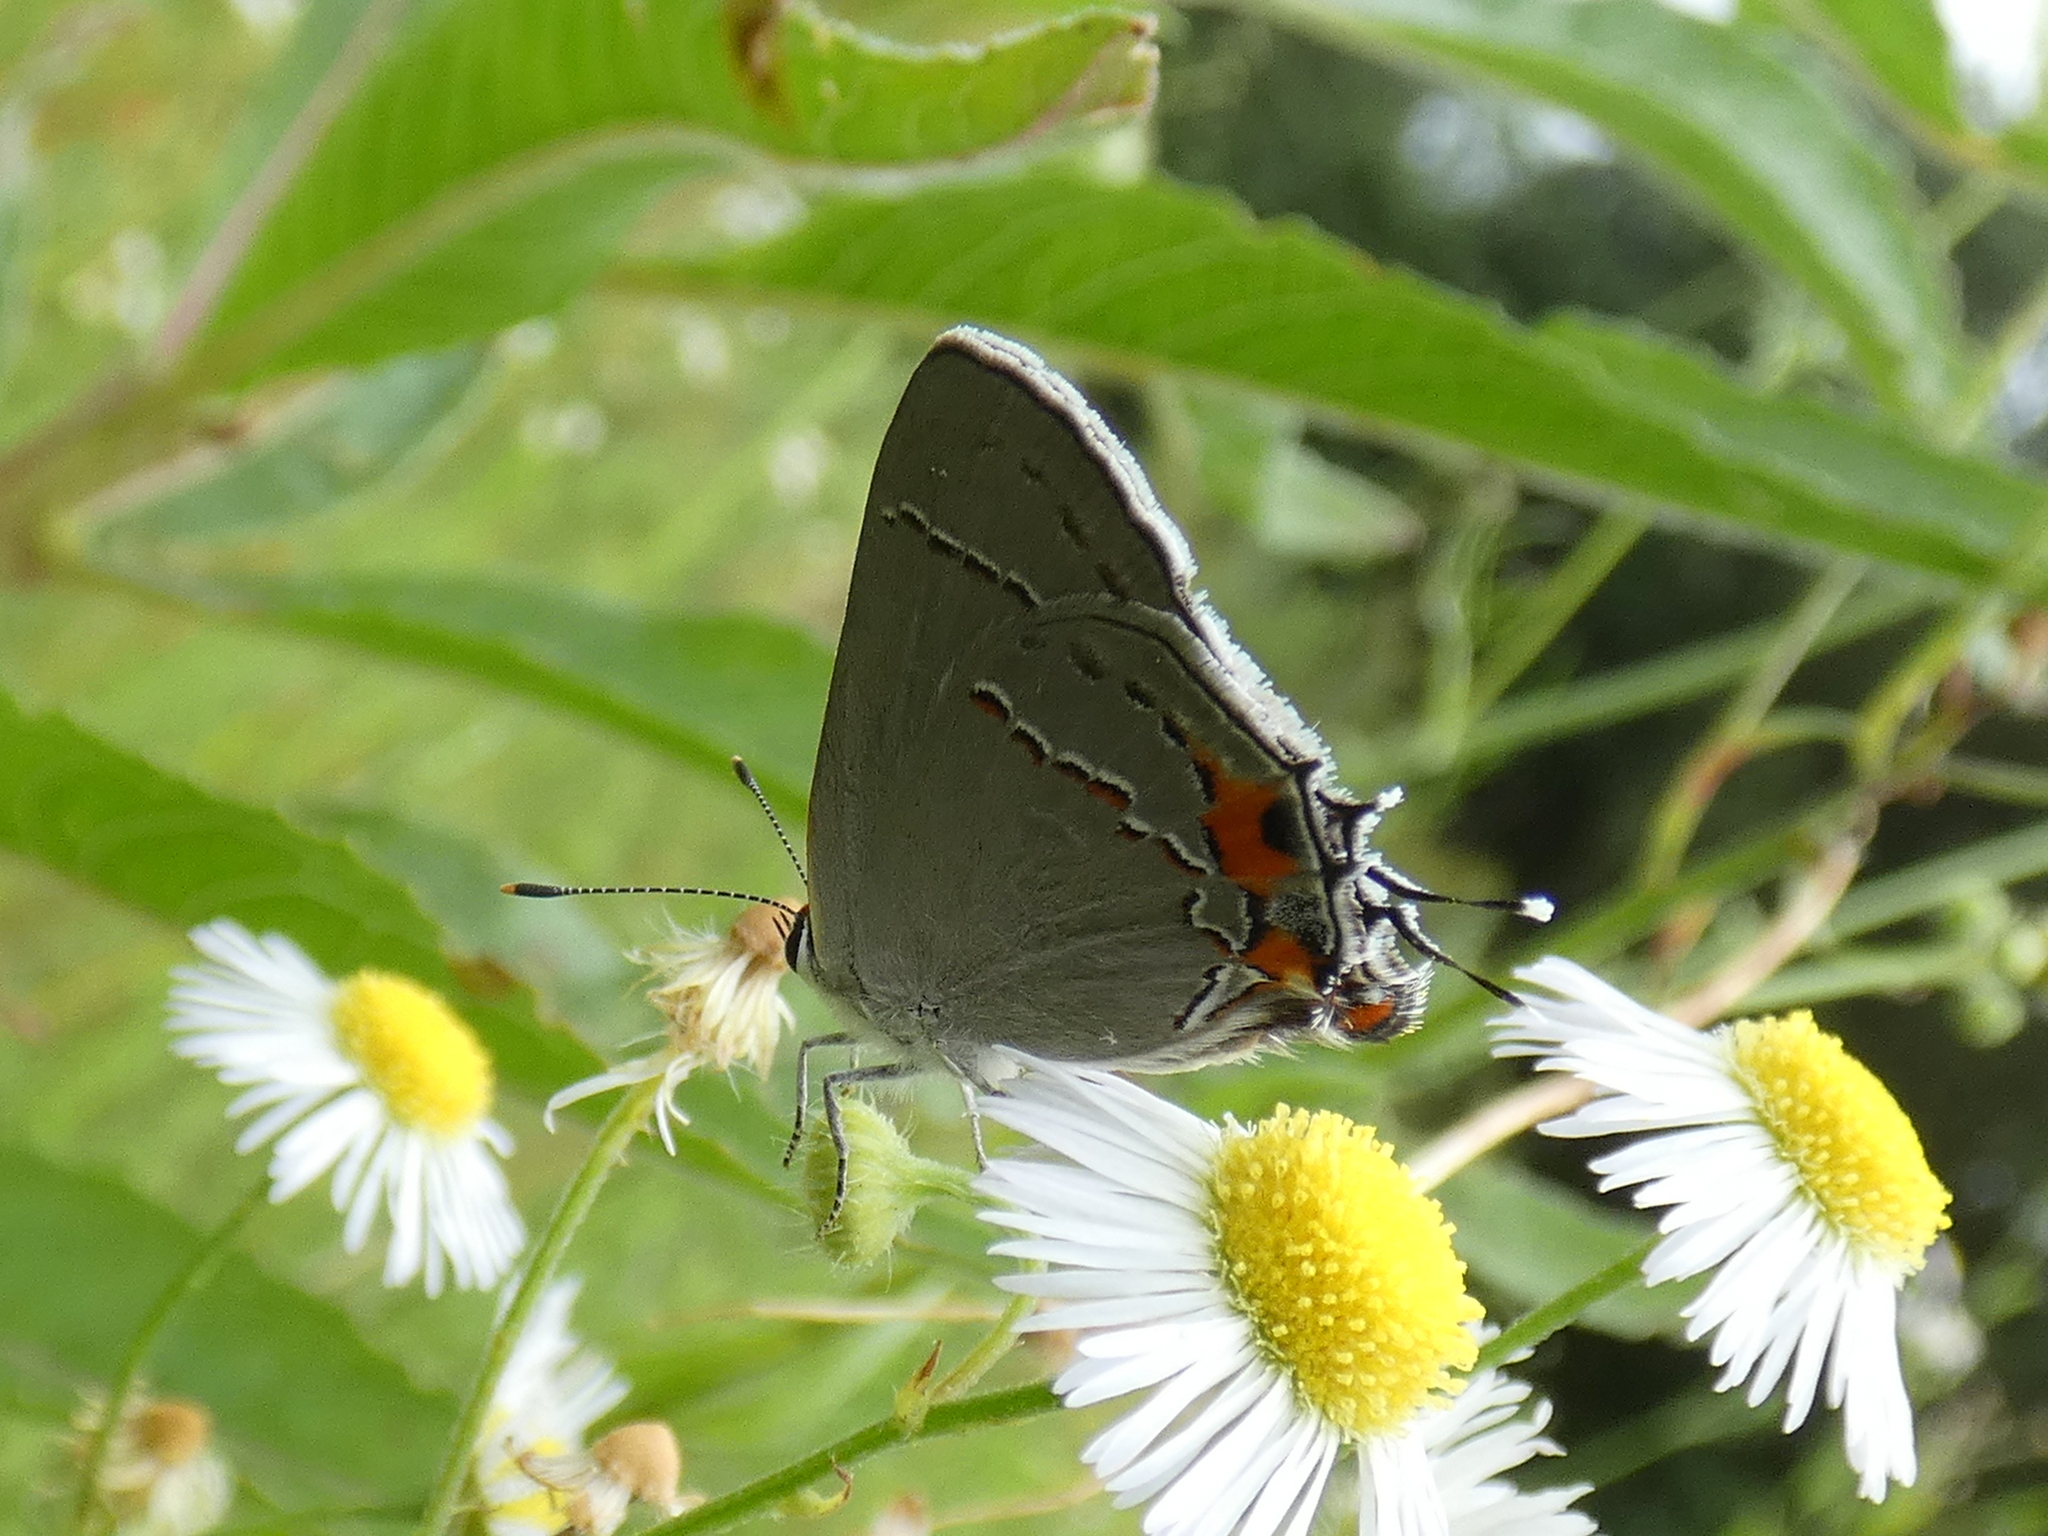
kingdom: Animalia
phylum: Arthropoda
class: Insecta
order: Lepidoptera
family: Lycaenidae
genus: Strymon
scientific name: Strymon melinus
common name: Gray hairstreak
